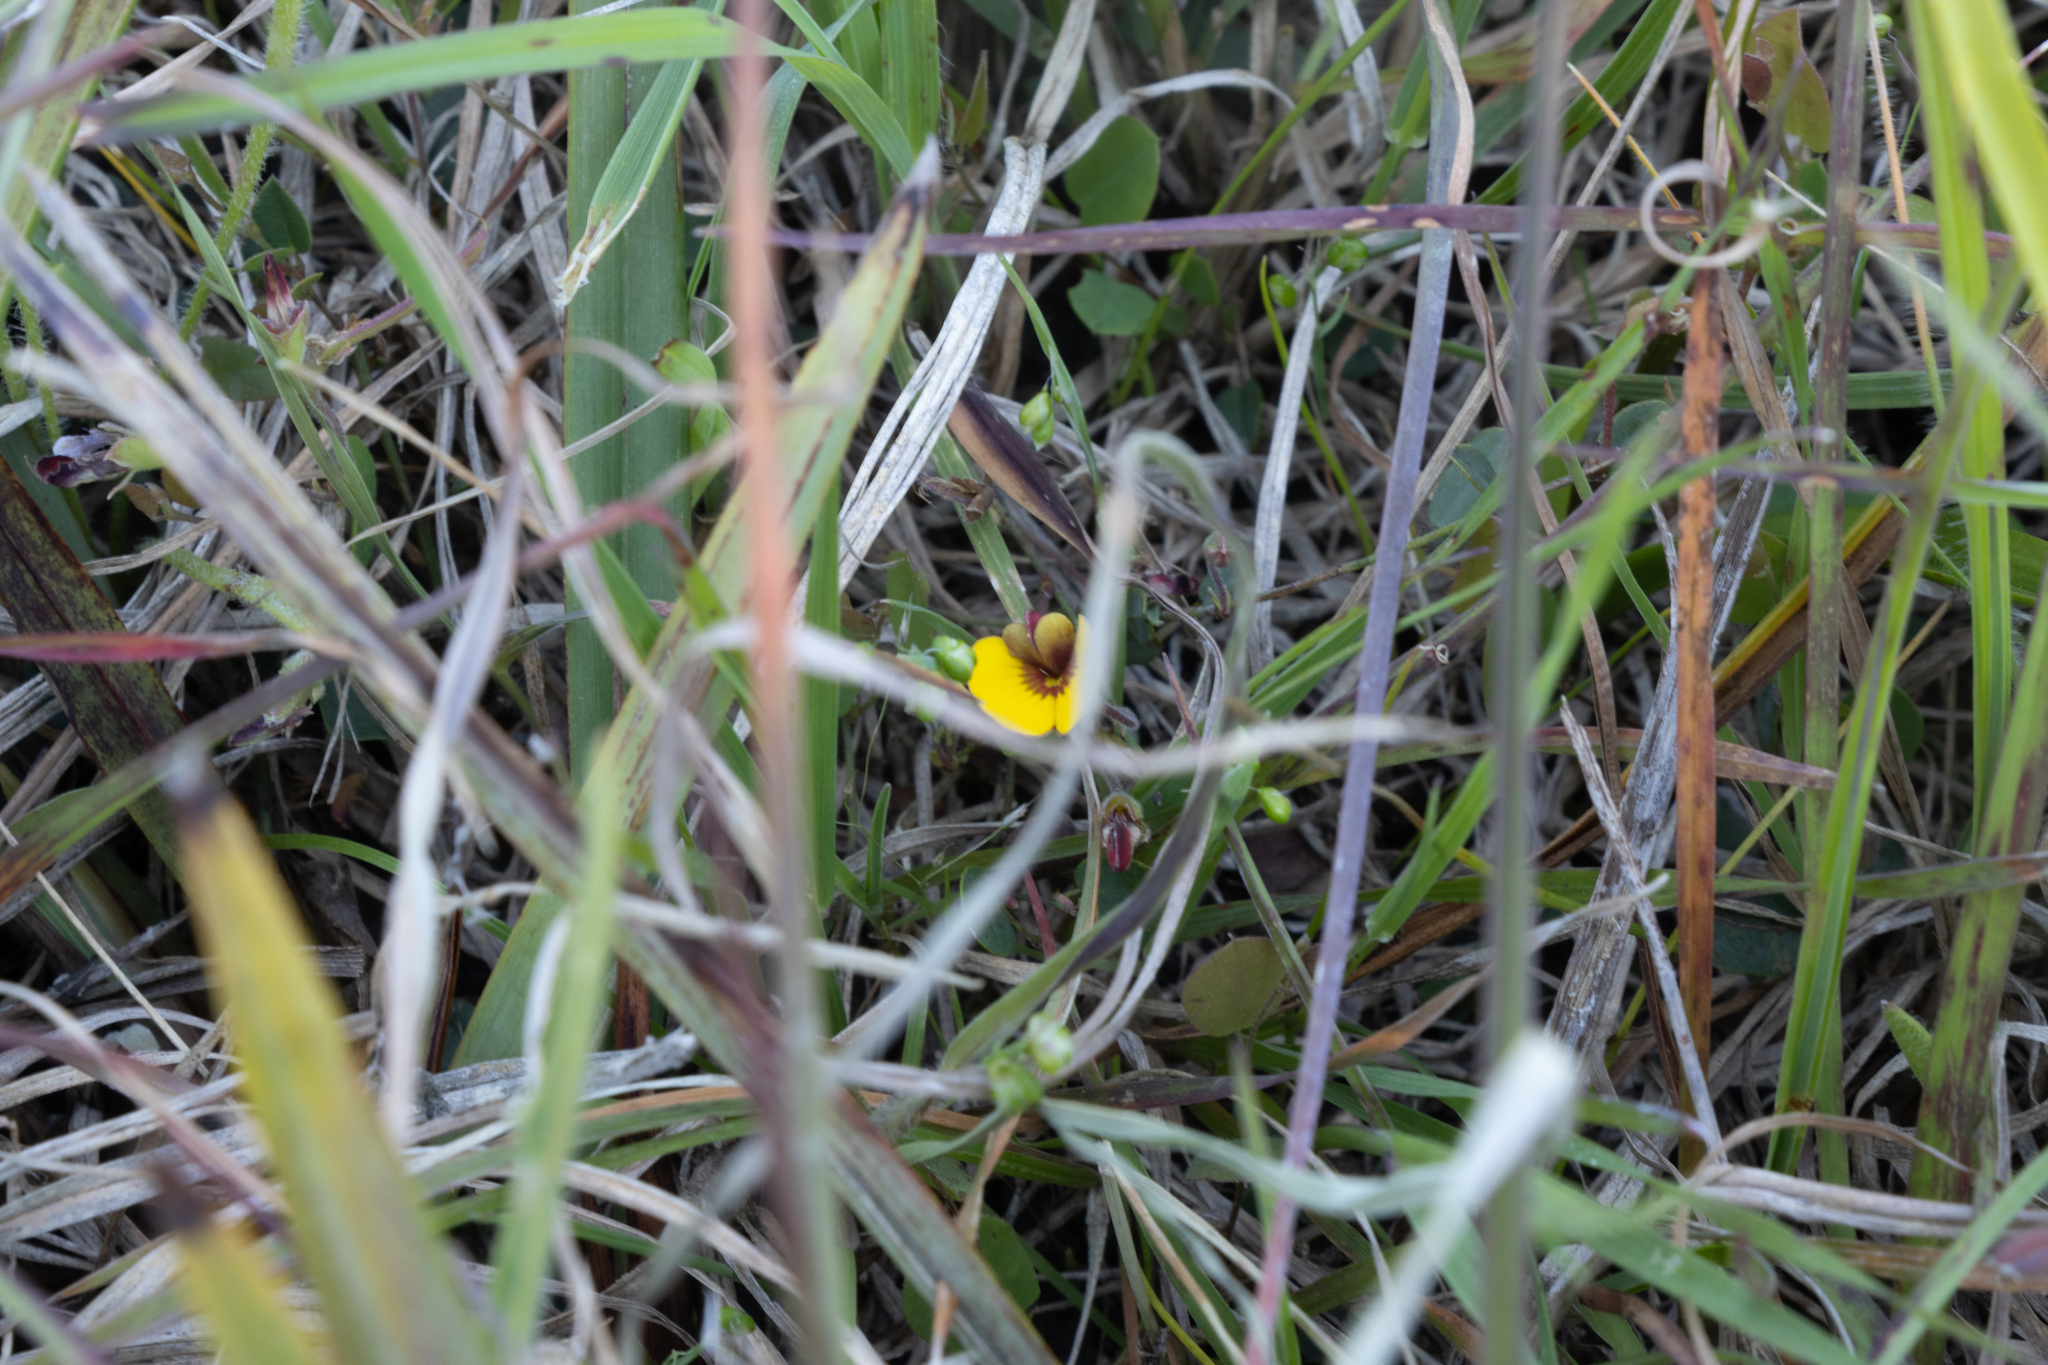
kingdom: Plantae
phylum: Tracheophyta
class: Magnoliopsida
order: Fabales
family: Fabaceae
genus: Bossiaea
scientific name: Bossiaea prostrata
